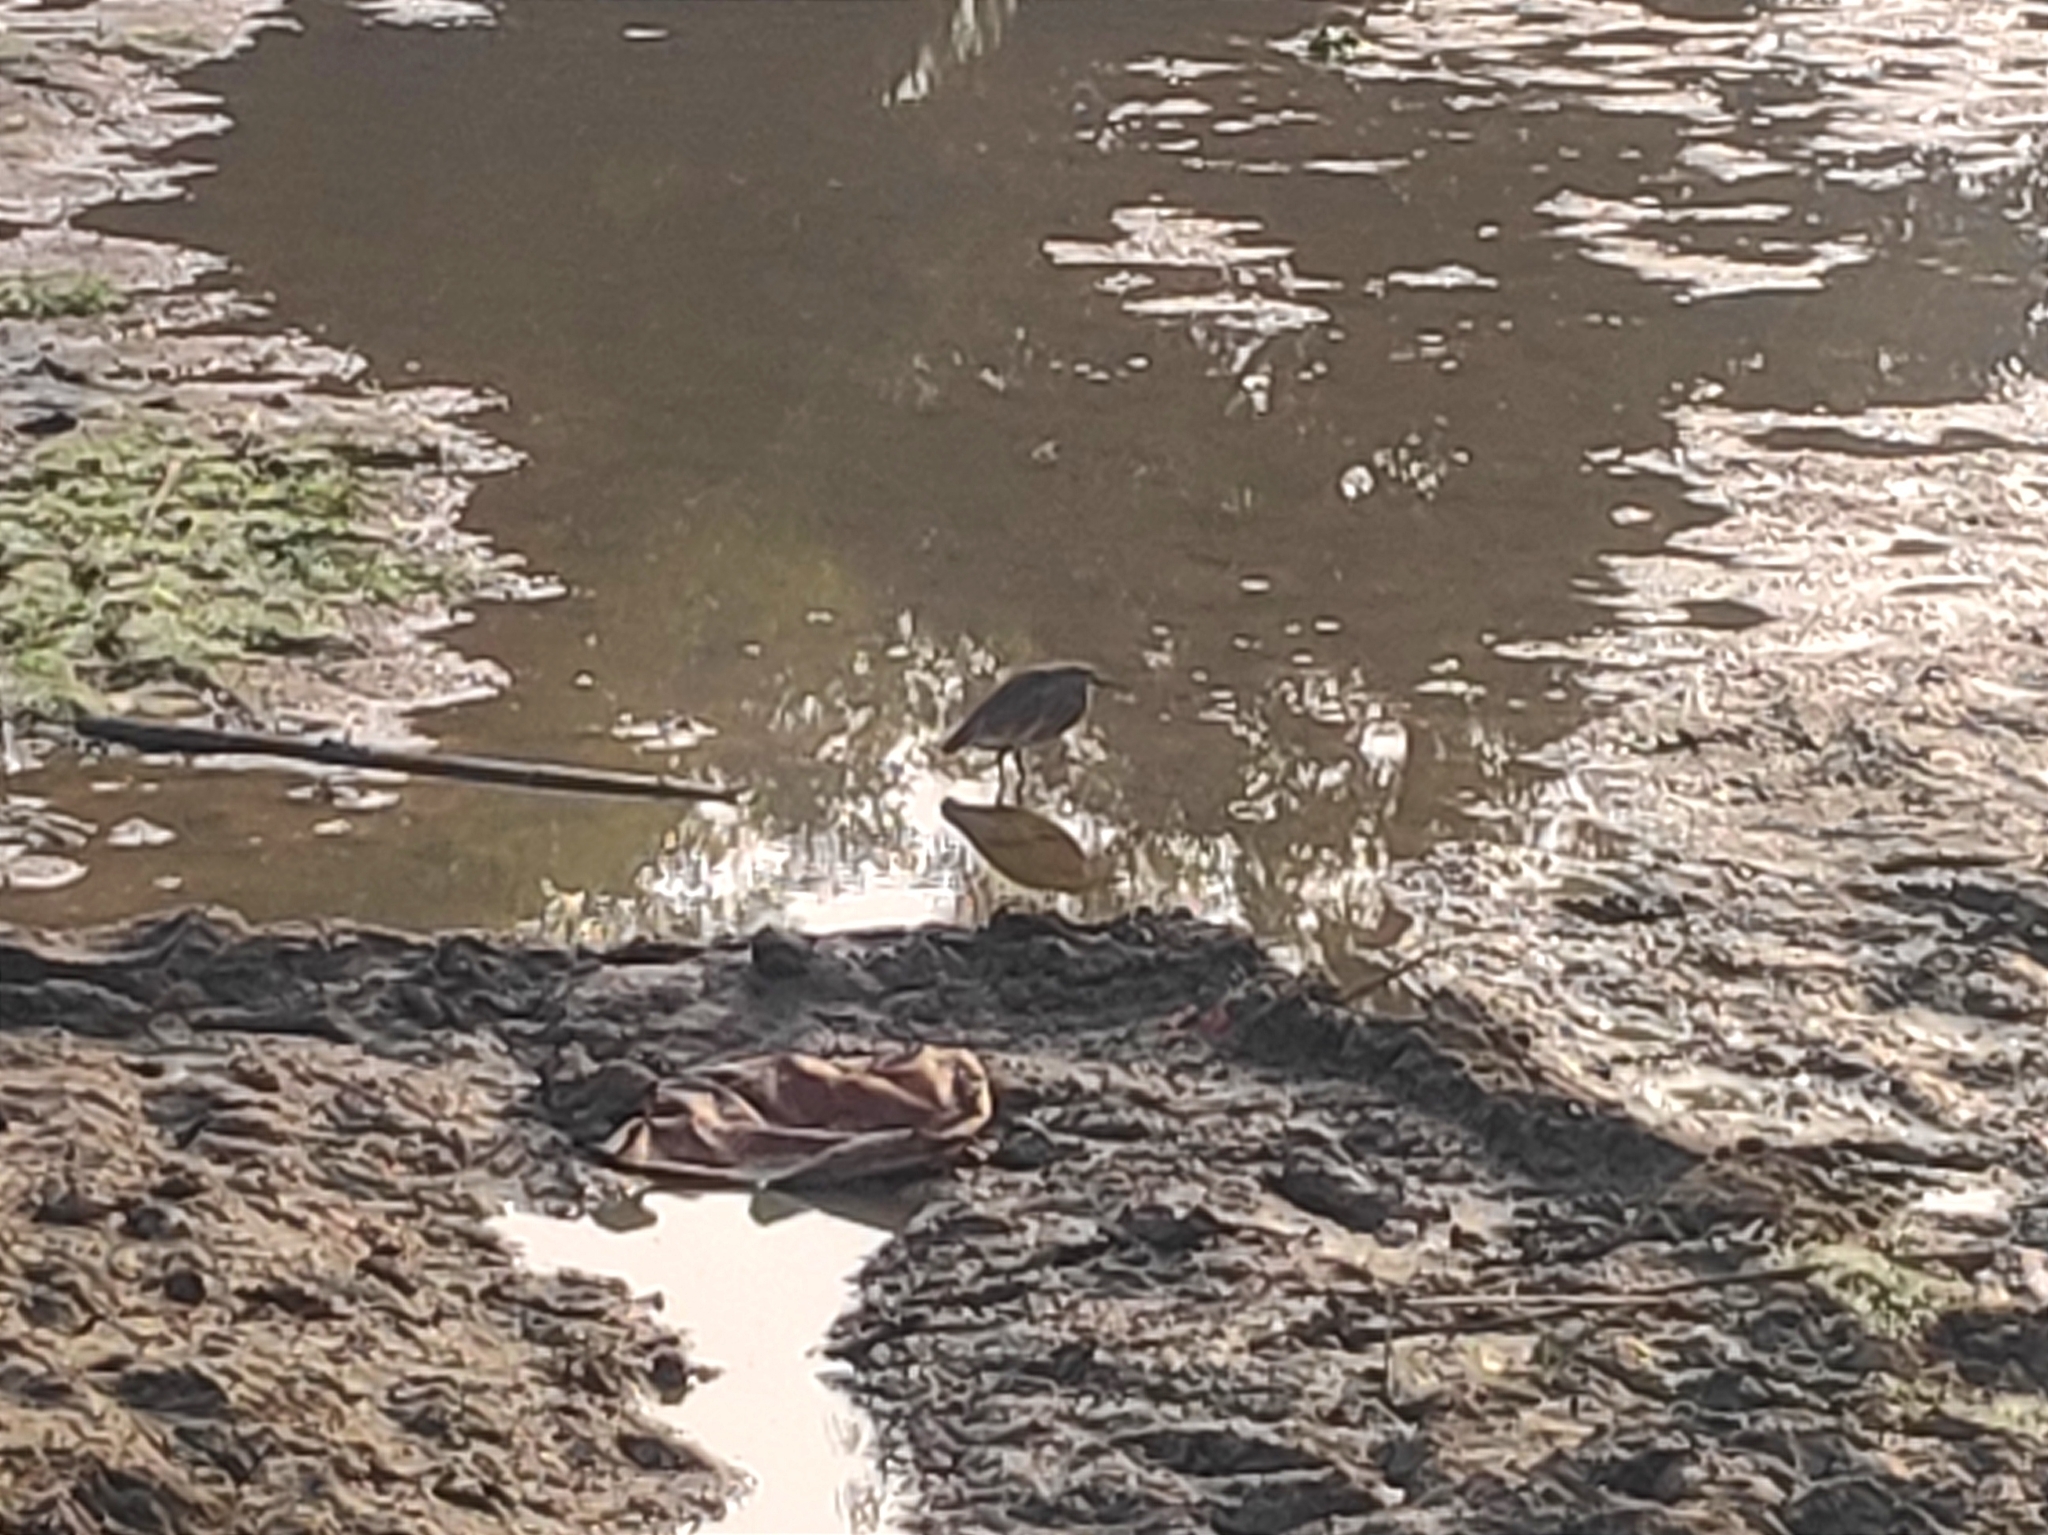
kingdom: Animalia
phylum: Chordata
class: Aves
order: Pelecaniformes
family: Ardeidae
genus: Ardeola
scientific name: Ardeola grayii
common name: Indian pond heron
